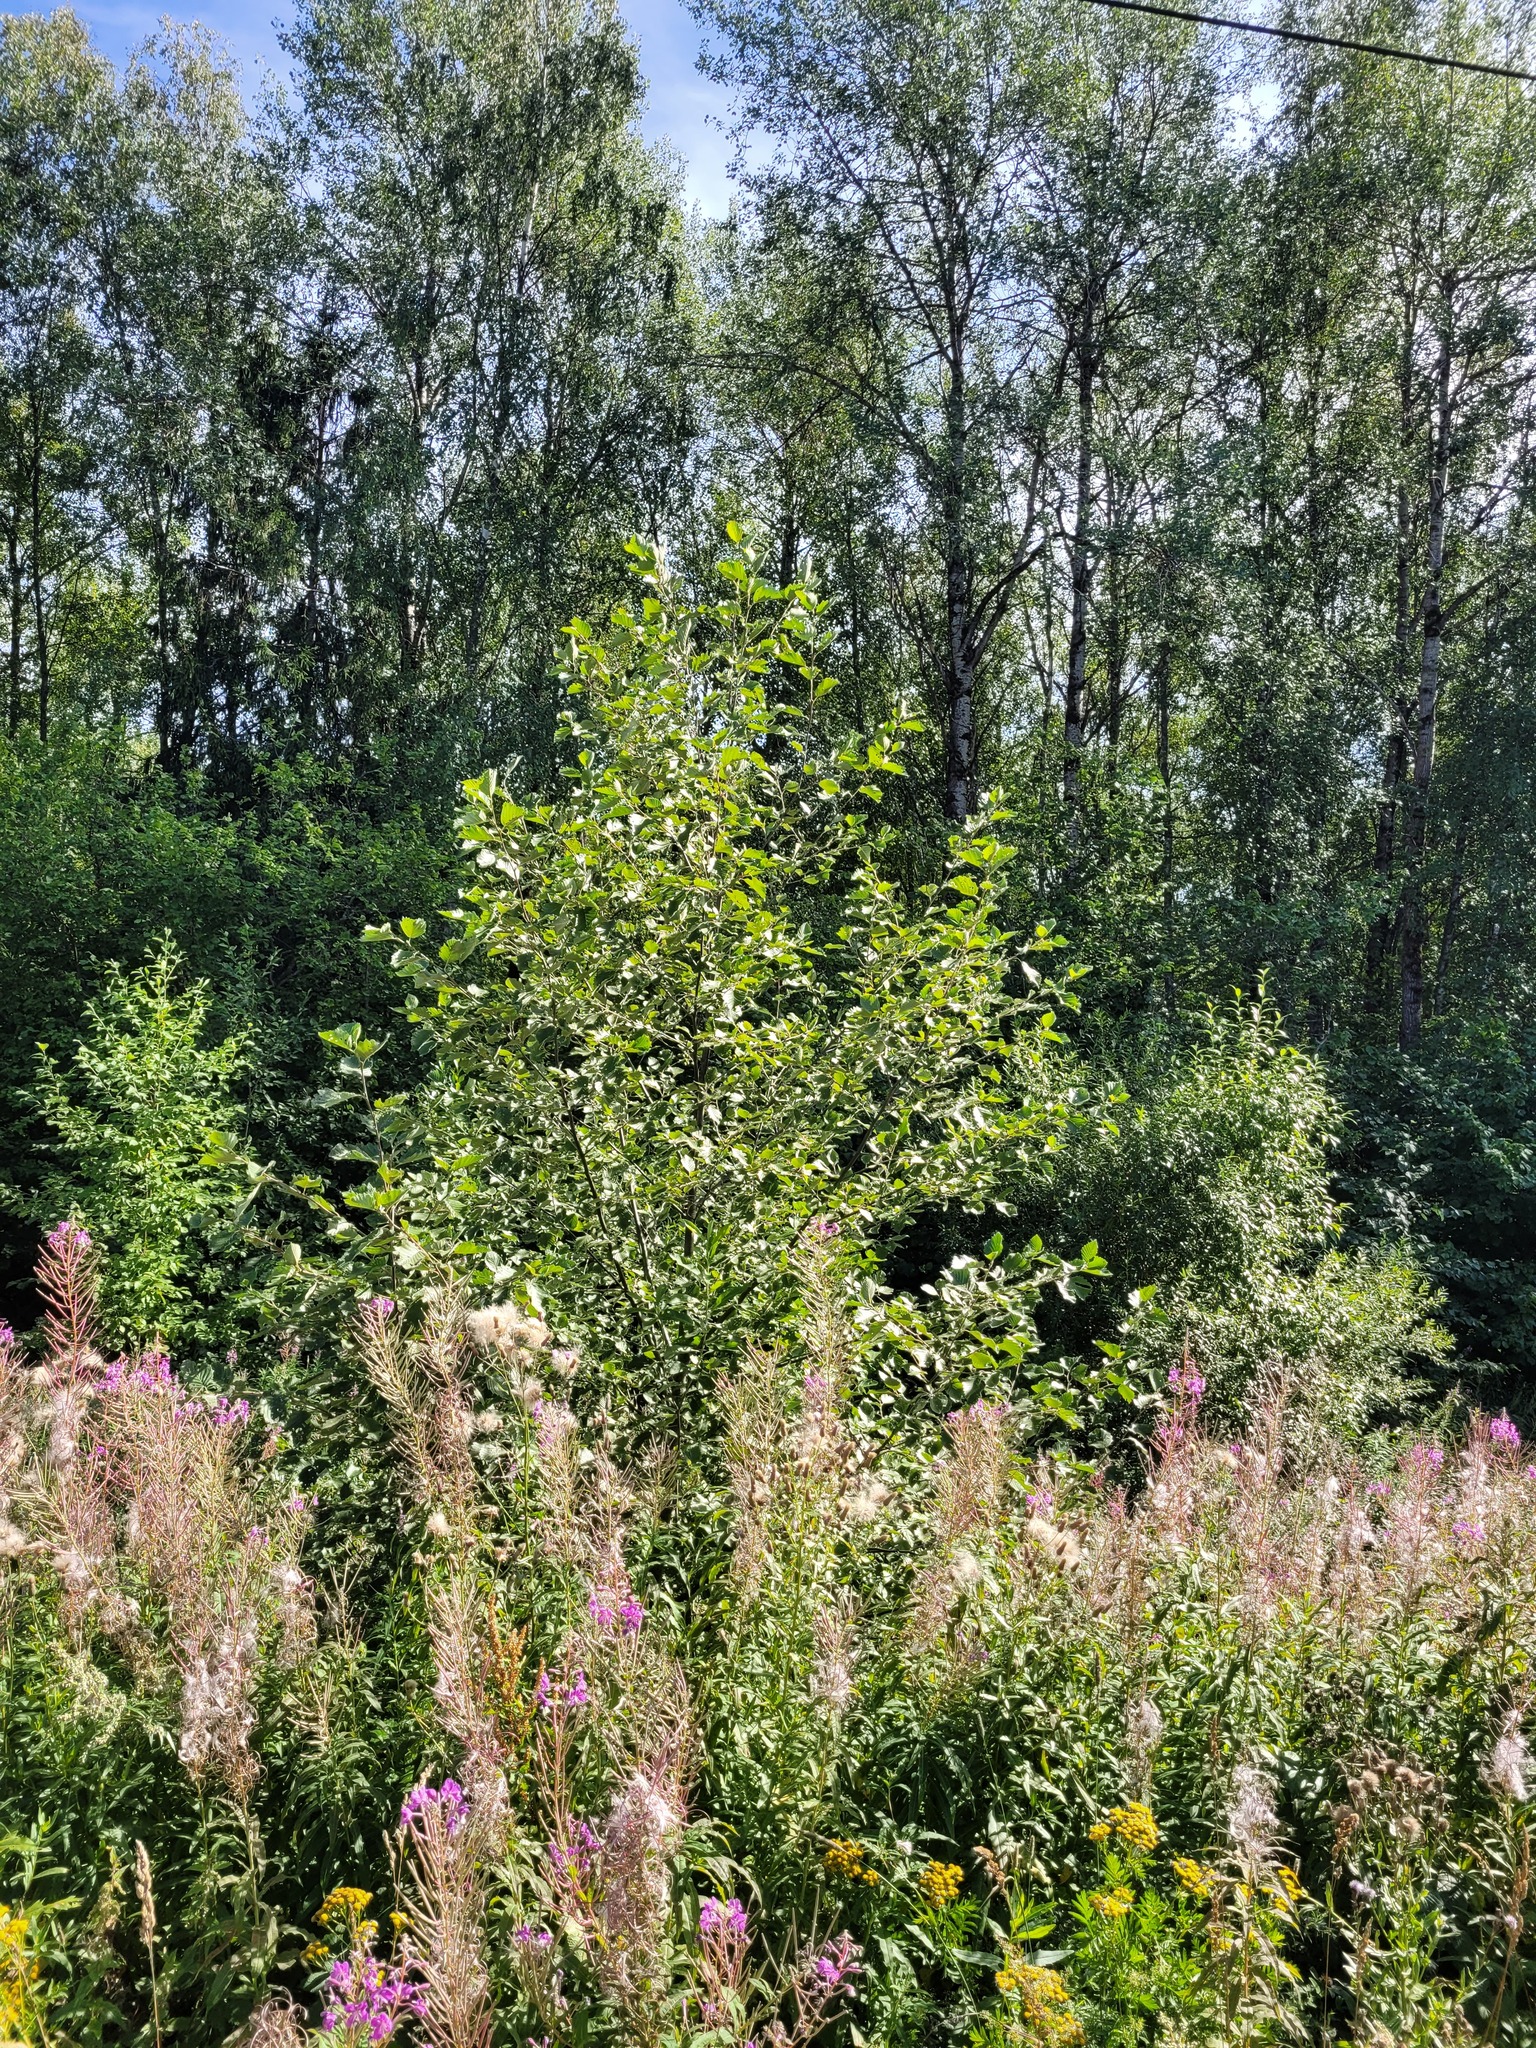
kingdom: Plantae
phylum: Tracheophyta
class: Magnoliopsida
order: Fagales
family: Betulaceae
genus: Alnus
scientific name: Alnus incana
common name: Grey alder
